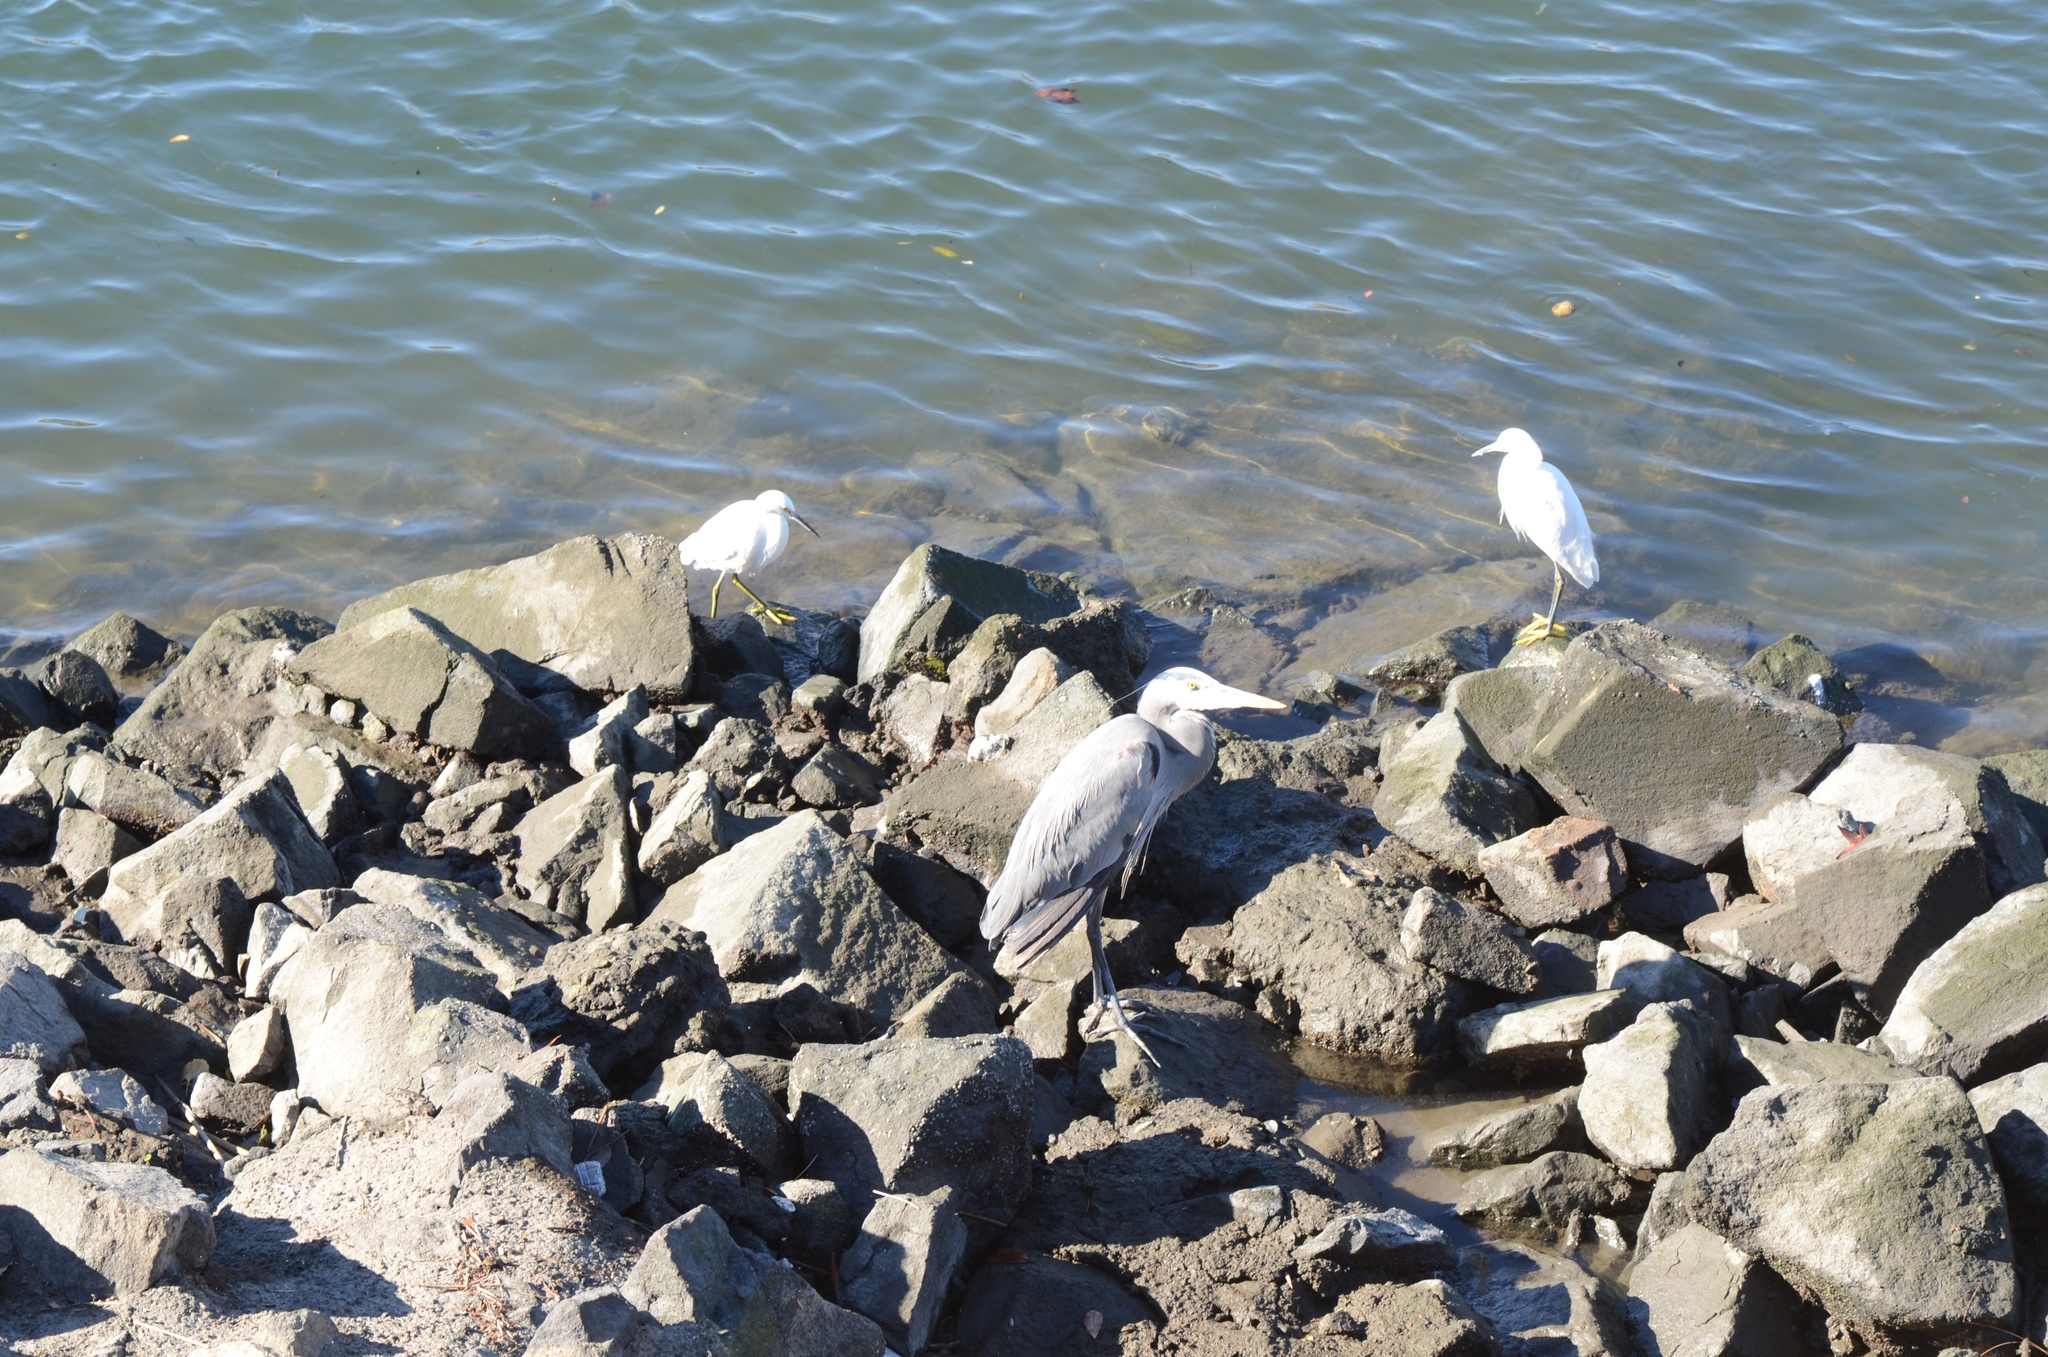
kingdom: Animalia
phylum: Chordata
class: Aves
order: Pelecaniformes
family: Ardeidae
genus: Egretta
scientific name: Egretta thula
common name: Snowy egret
